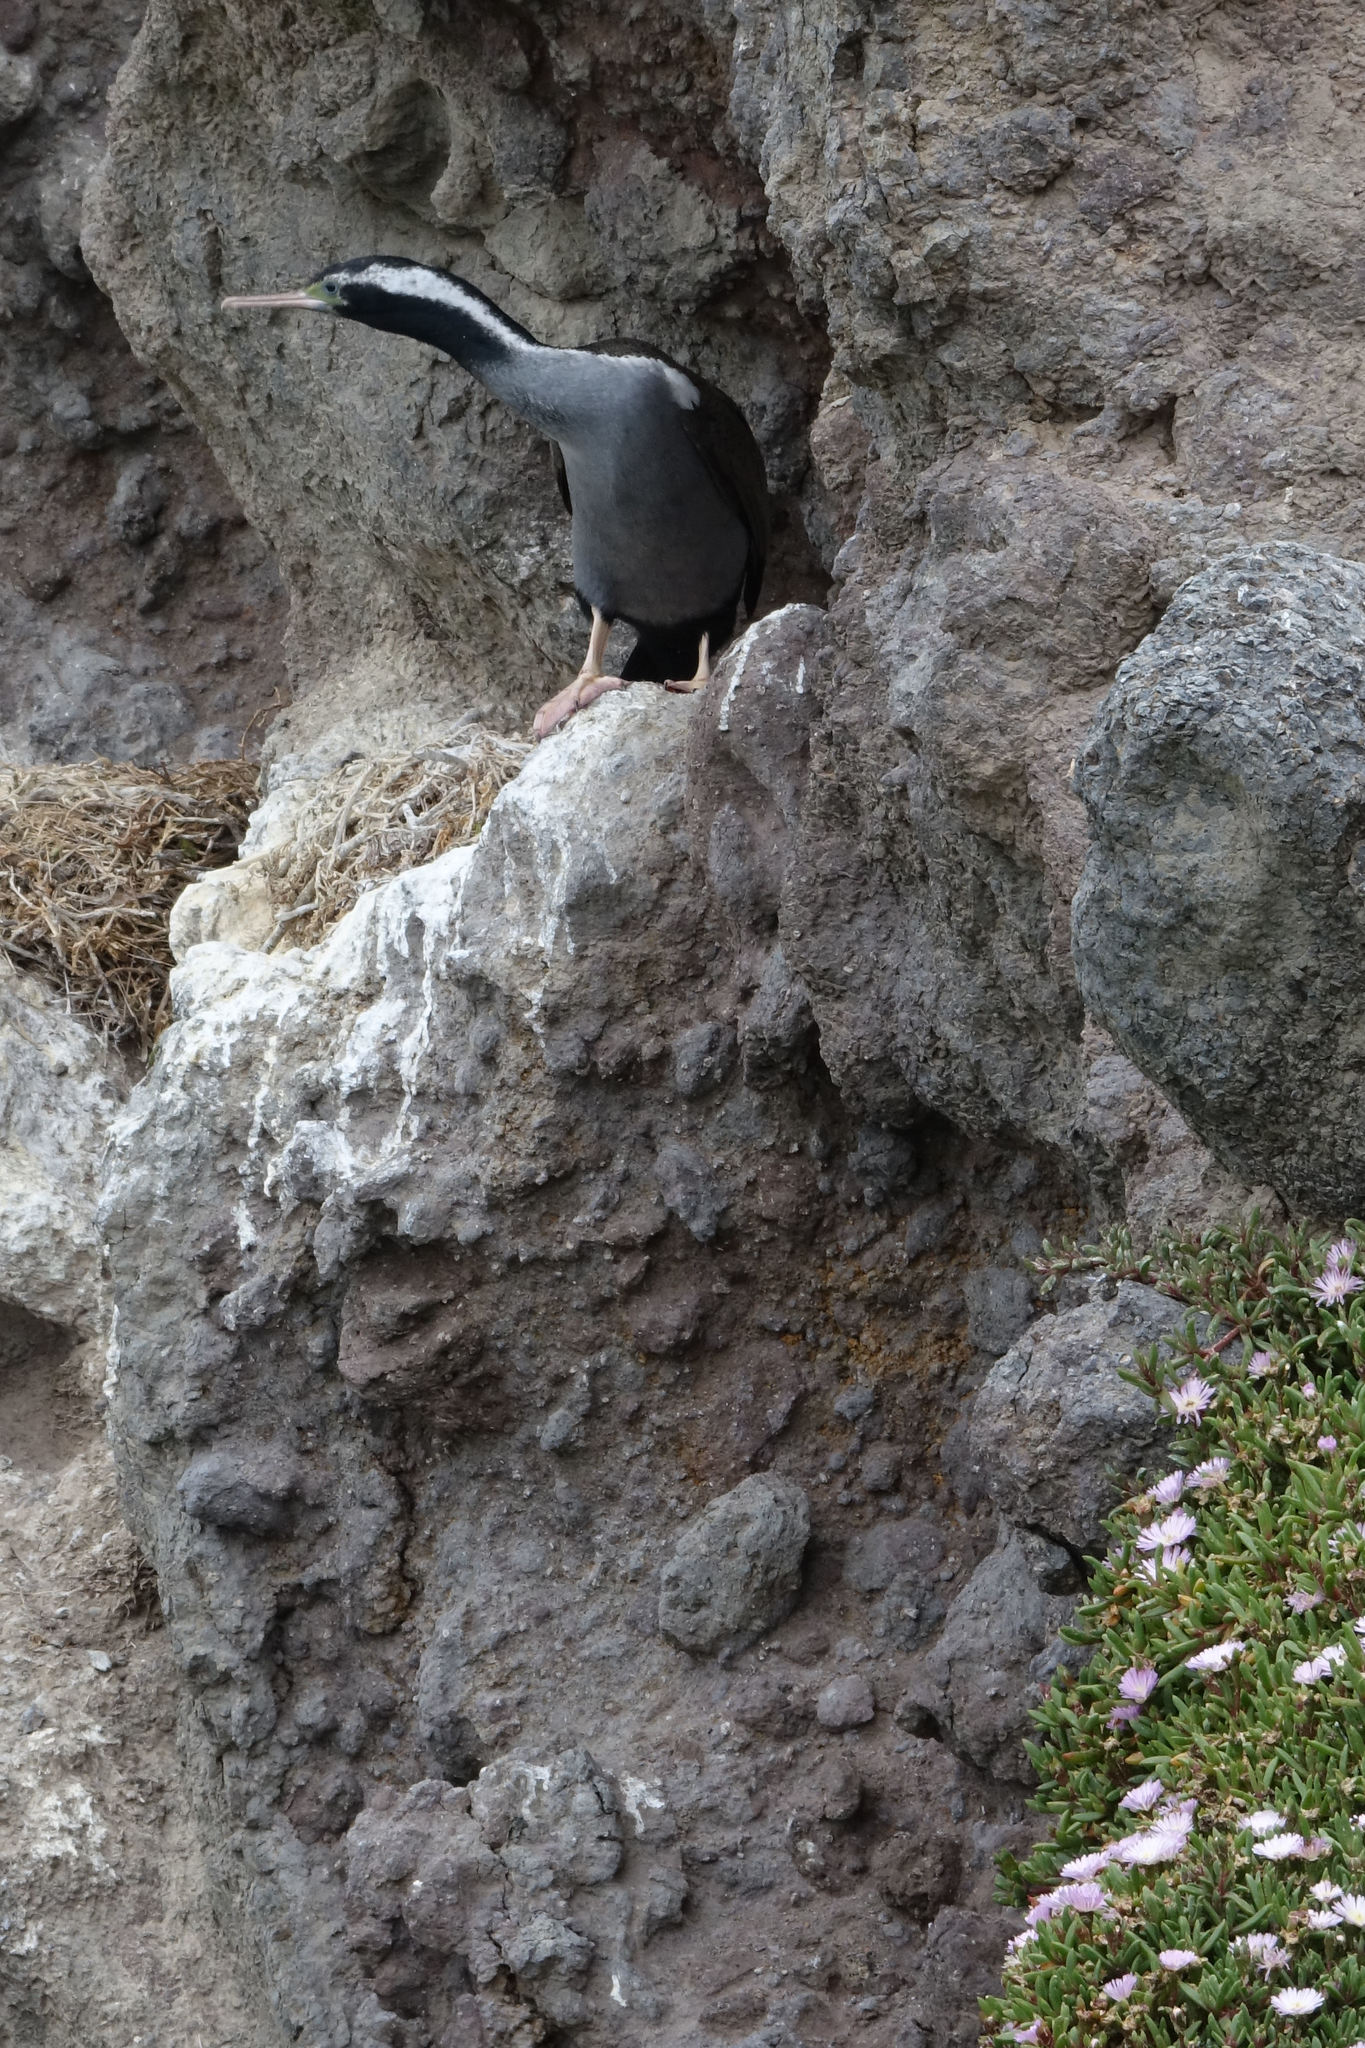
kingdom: Animalia
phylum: Chordata
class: Aves
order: Suliformes
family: Phalacrocoracidae
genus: Phalacrocorax
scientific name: Phalacrocorax punctatus
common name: Spotted shag
